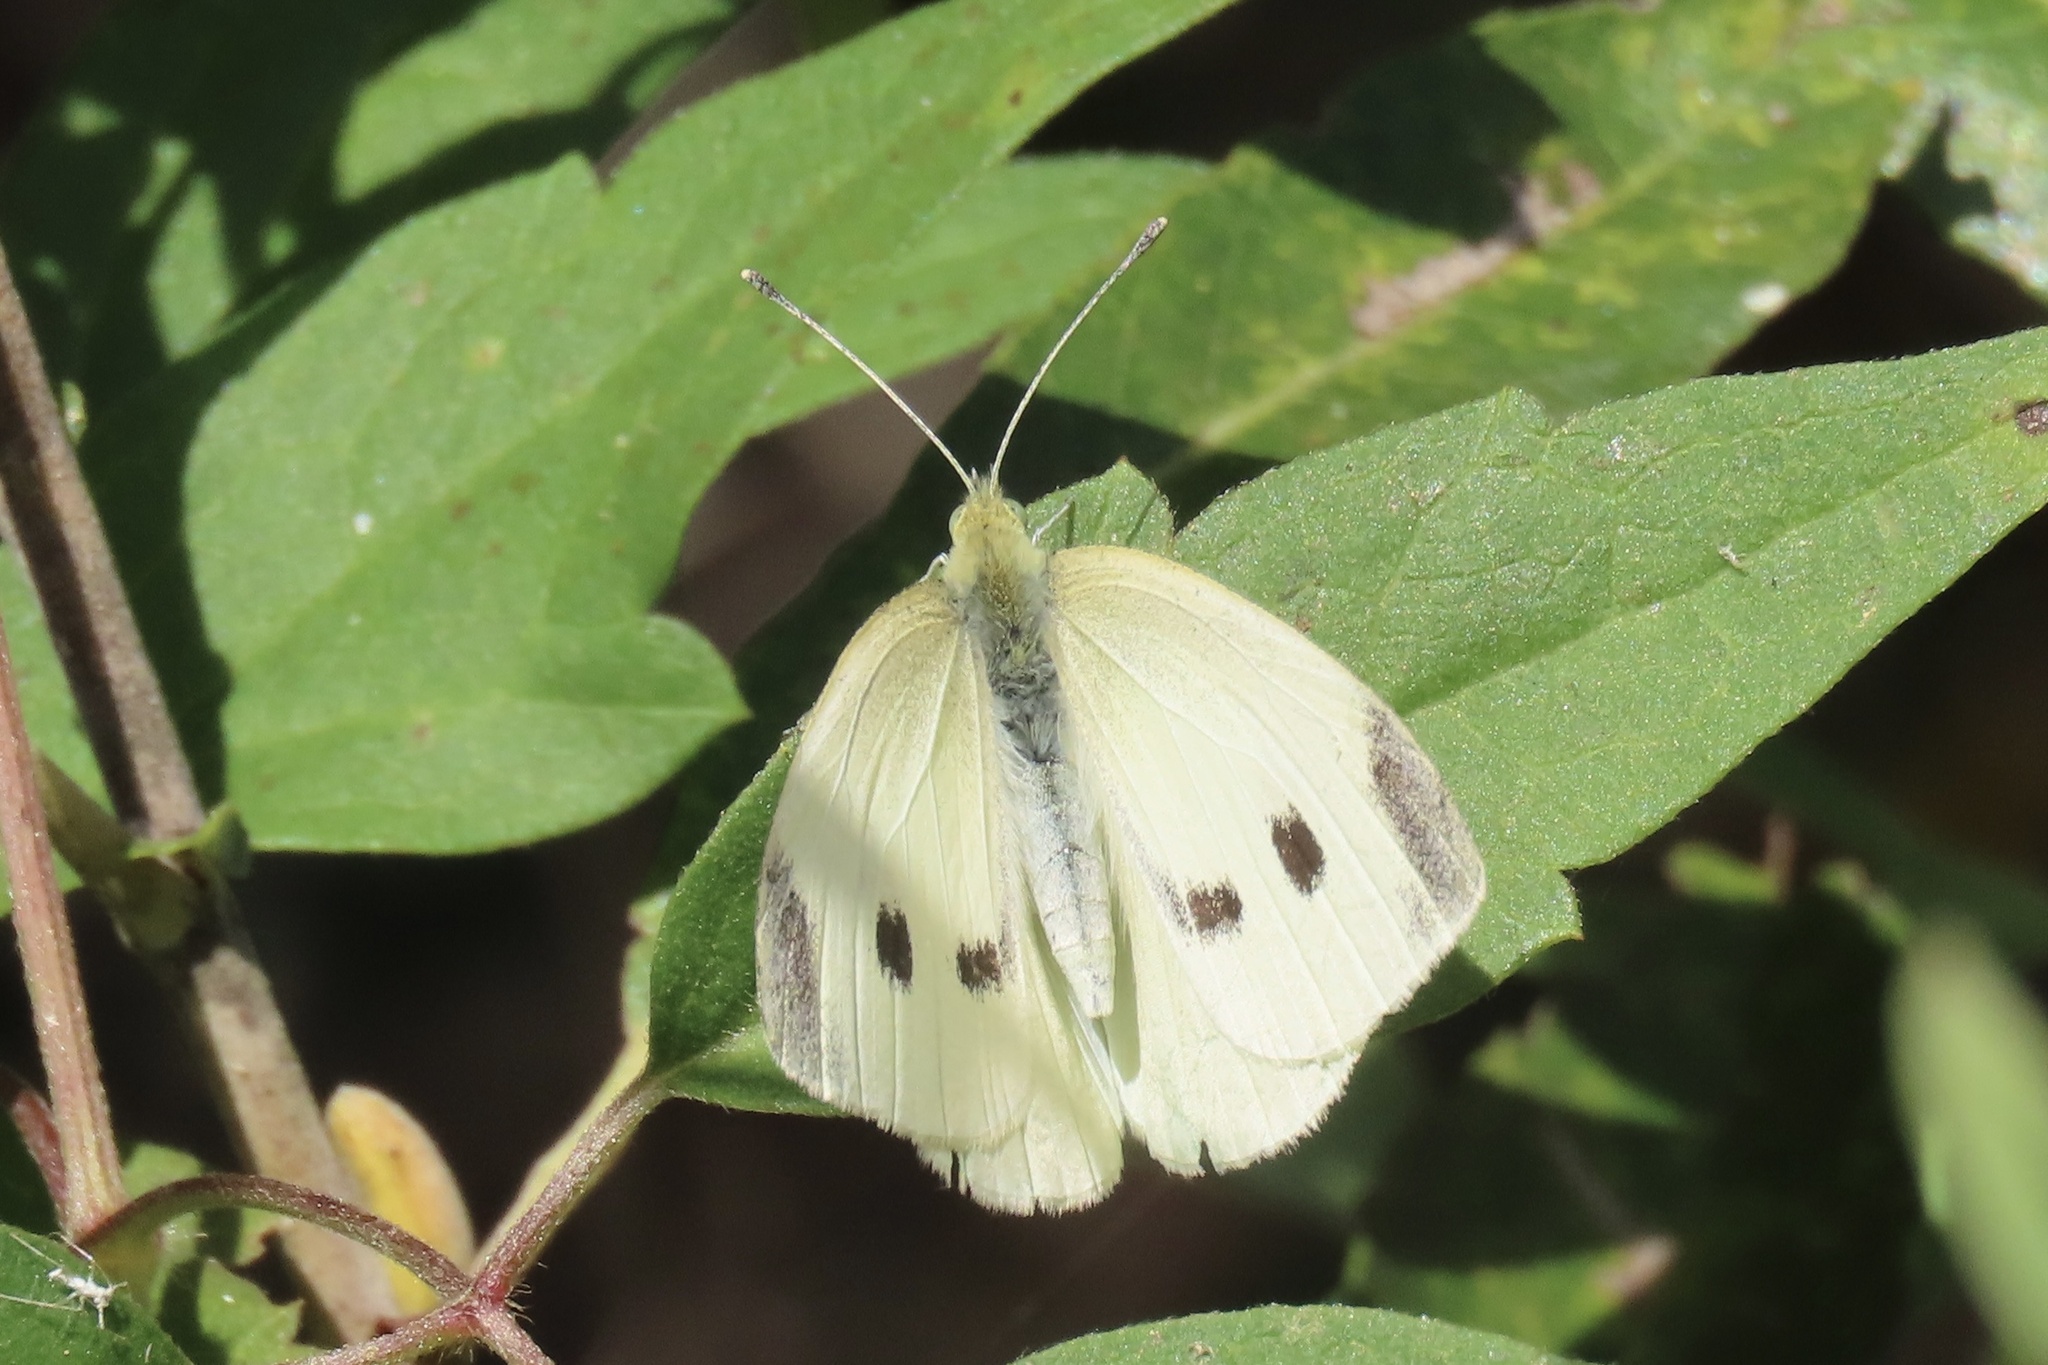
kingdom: Animalia
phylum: Arthropoda
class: Insecta
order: Lepidoptera
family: Pieridae
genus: Pieris
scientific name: Pieris rapae
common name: Small white
